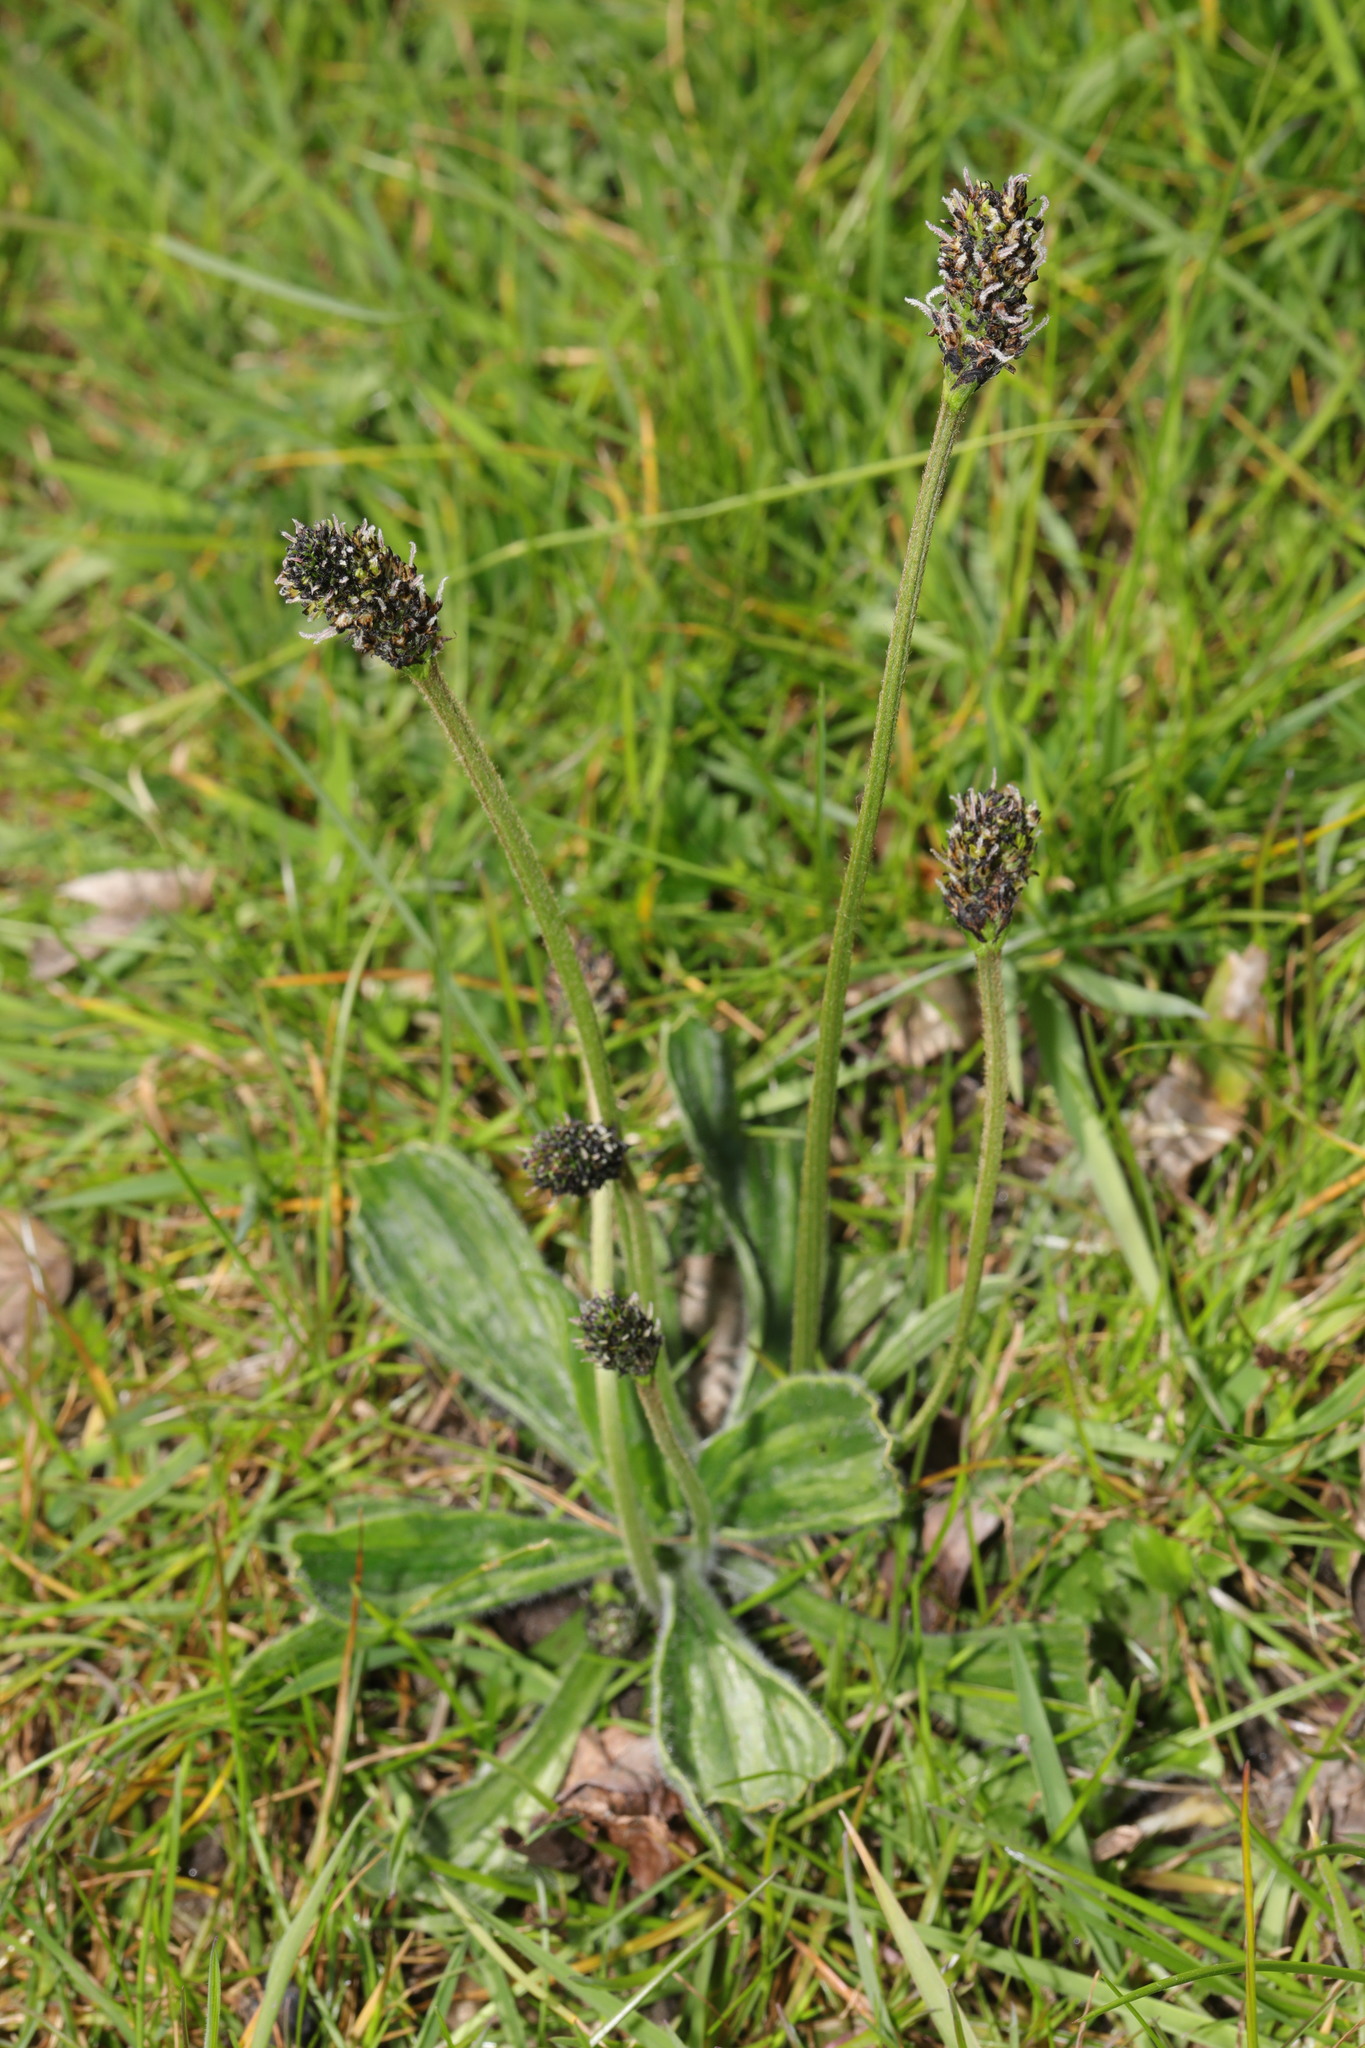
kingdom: Plantae
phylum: Tracheophyta
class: Magnoliopsida
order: Lamiales
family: Plantaginaceae
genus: Plantago
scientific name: Plantago lanceolata
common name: Ribwort plantain
